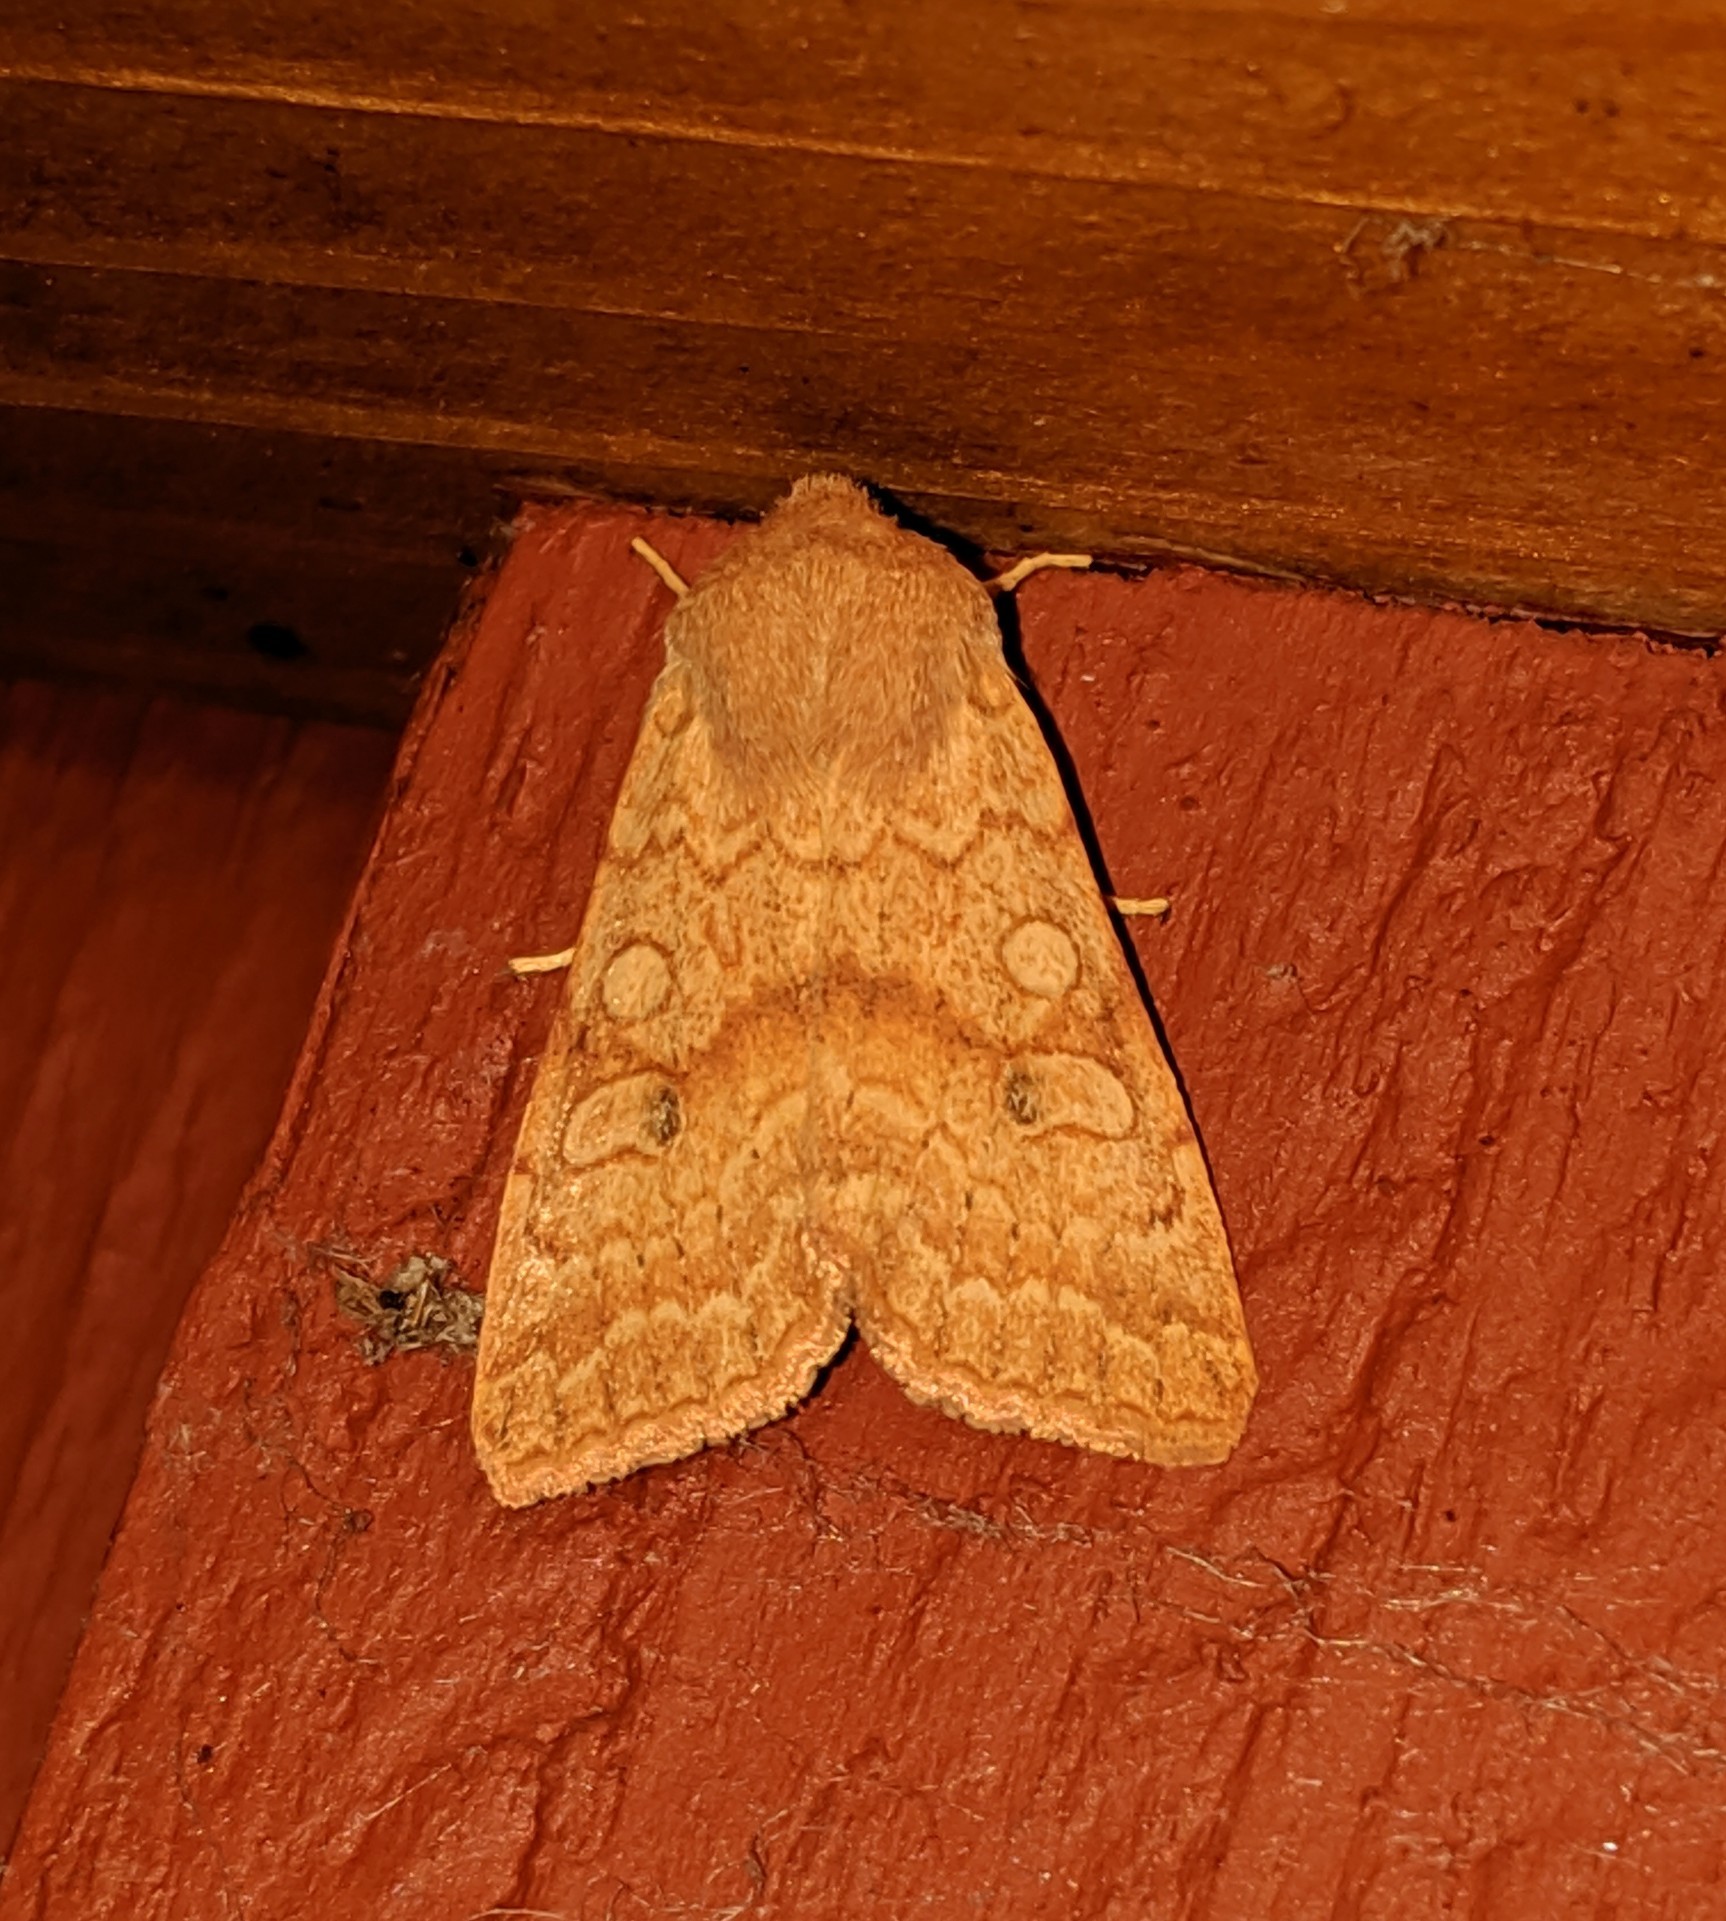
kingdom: Animalia
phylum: Arthropoda
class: Insecta
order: Lepidoptera
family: Noctuidae
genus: Agrochola
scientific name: Agrochola decipiens
